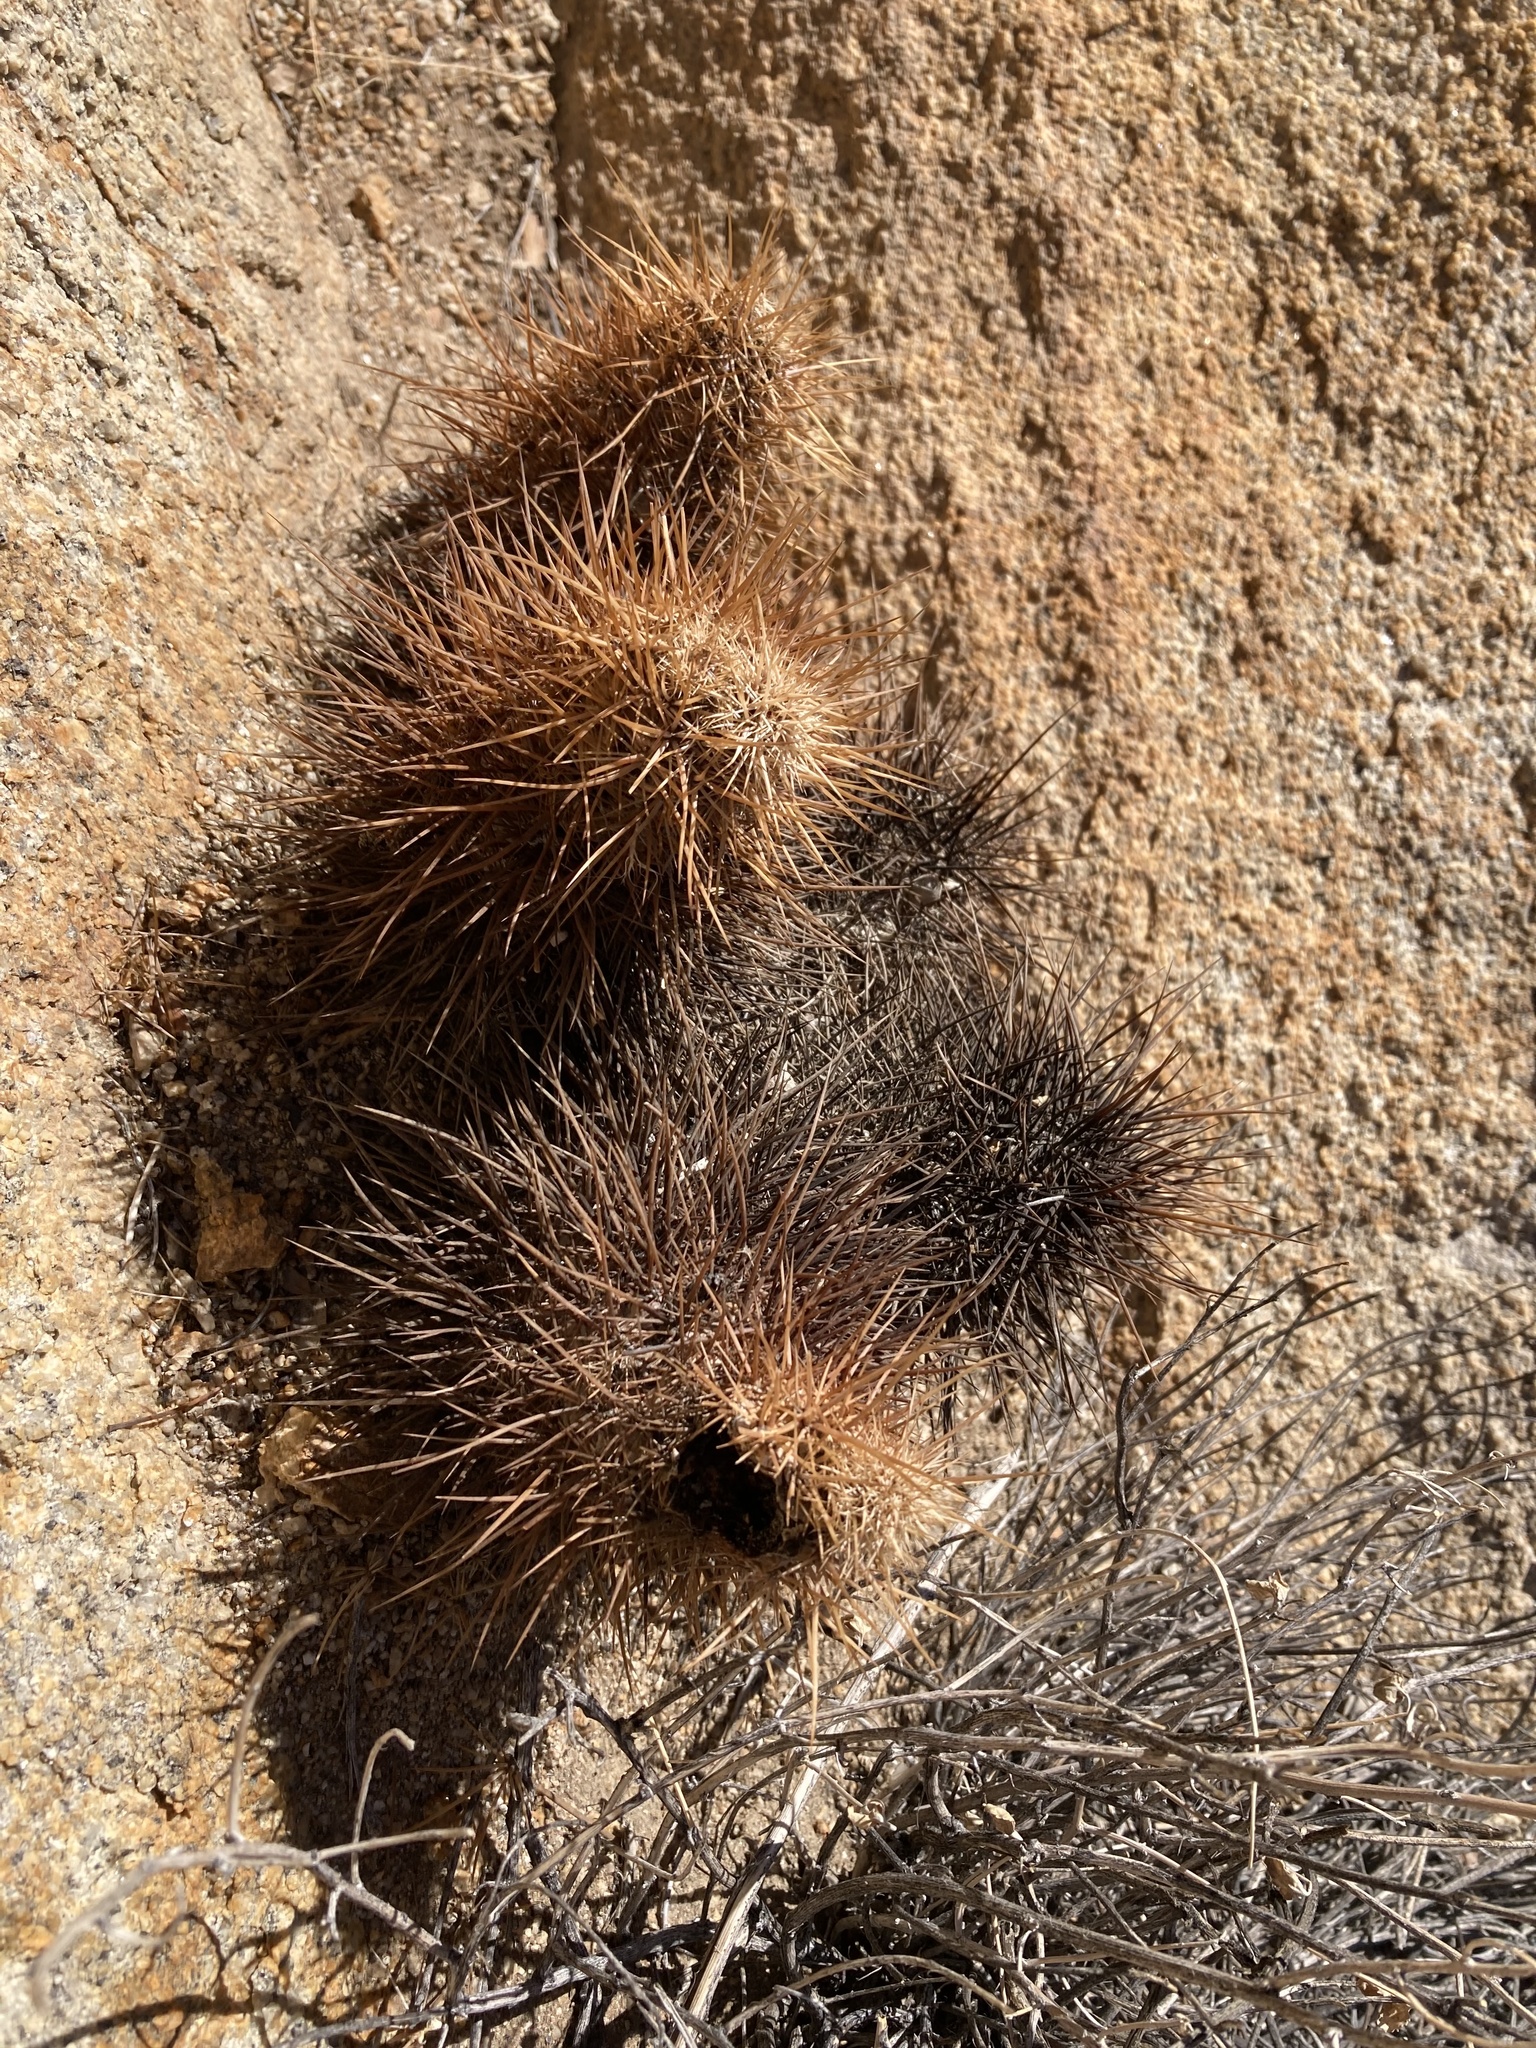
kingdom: Plantae
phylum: Tracheophyta
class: Magnoliopsida
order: Caryophyllales
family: Cactaceae
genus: Echinocereus
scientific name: Echinocereus engelmannii
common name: Engelmann's hedgehog cactus
